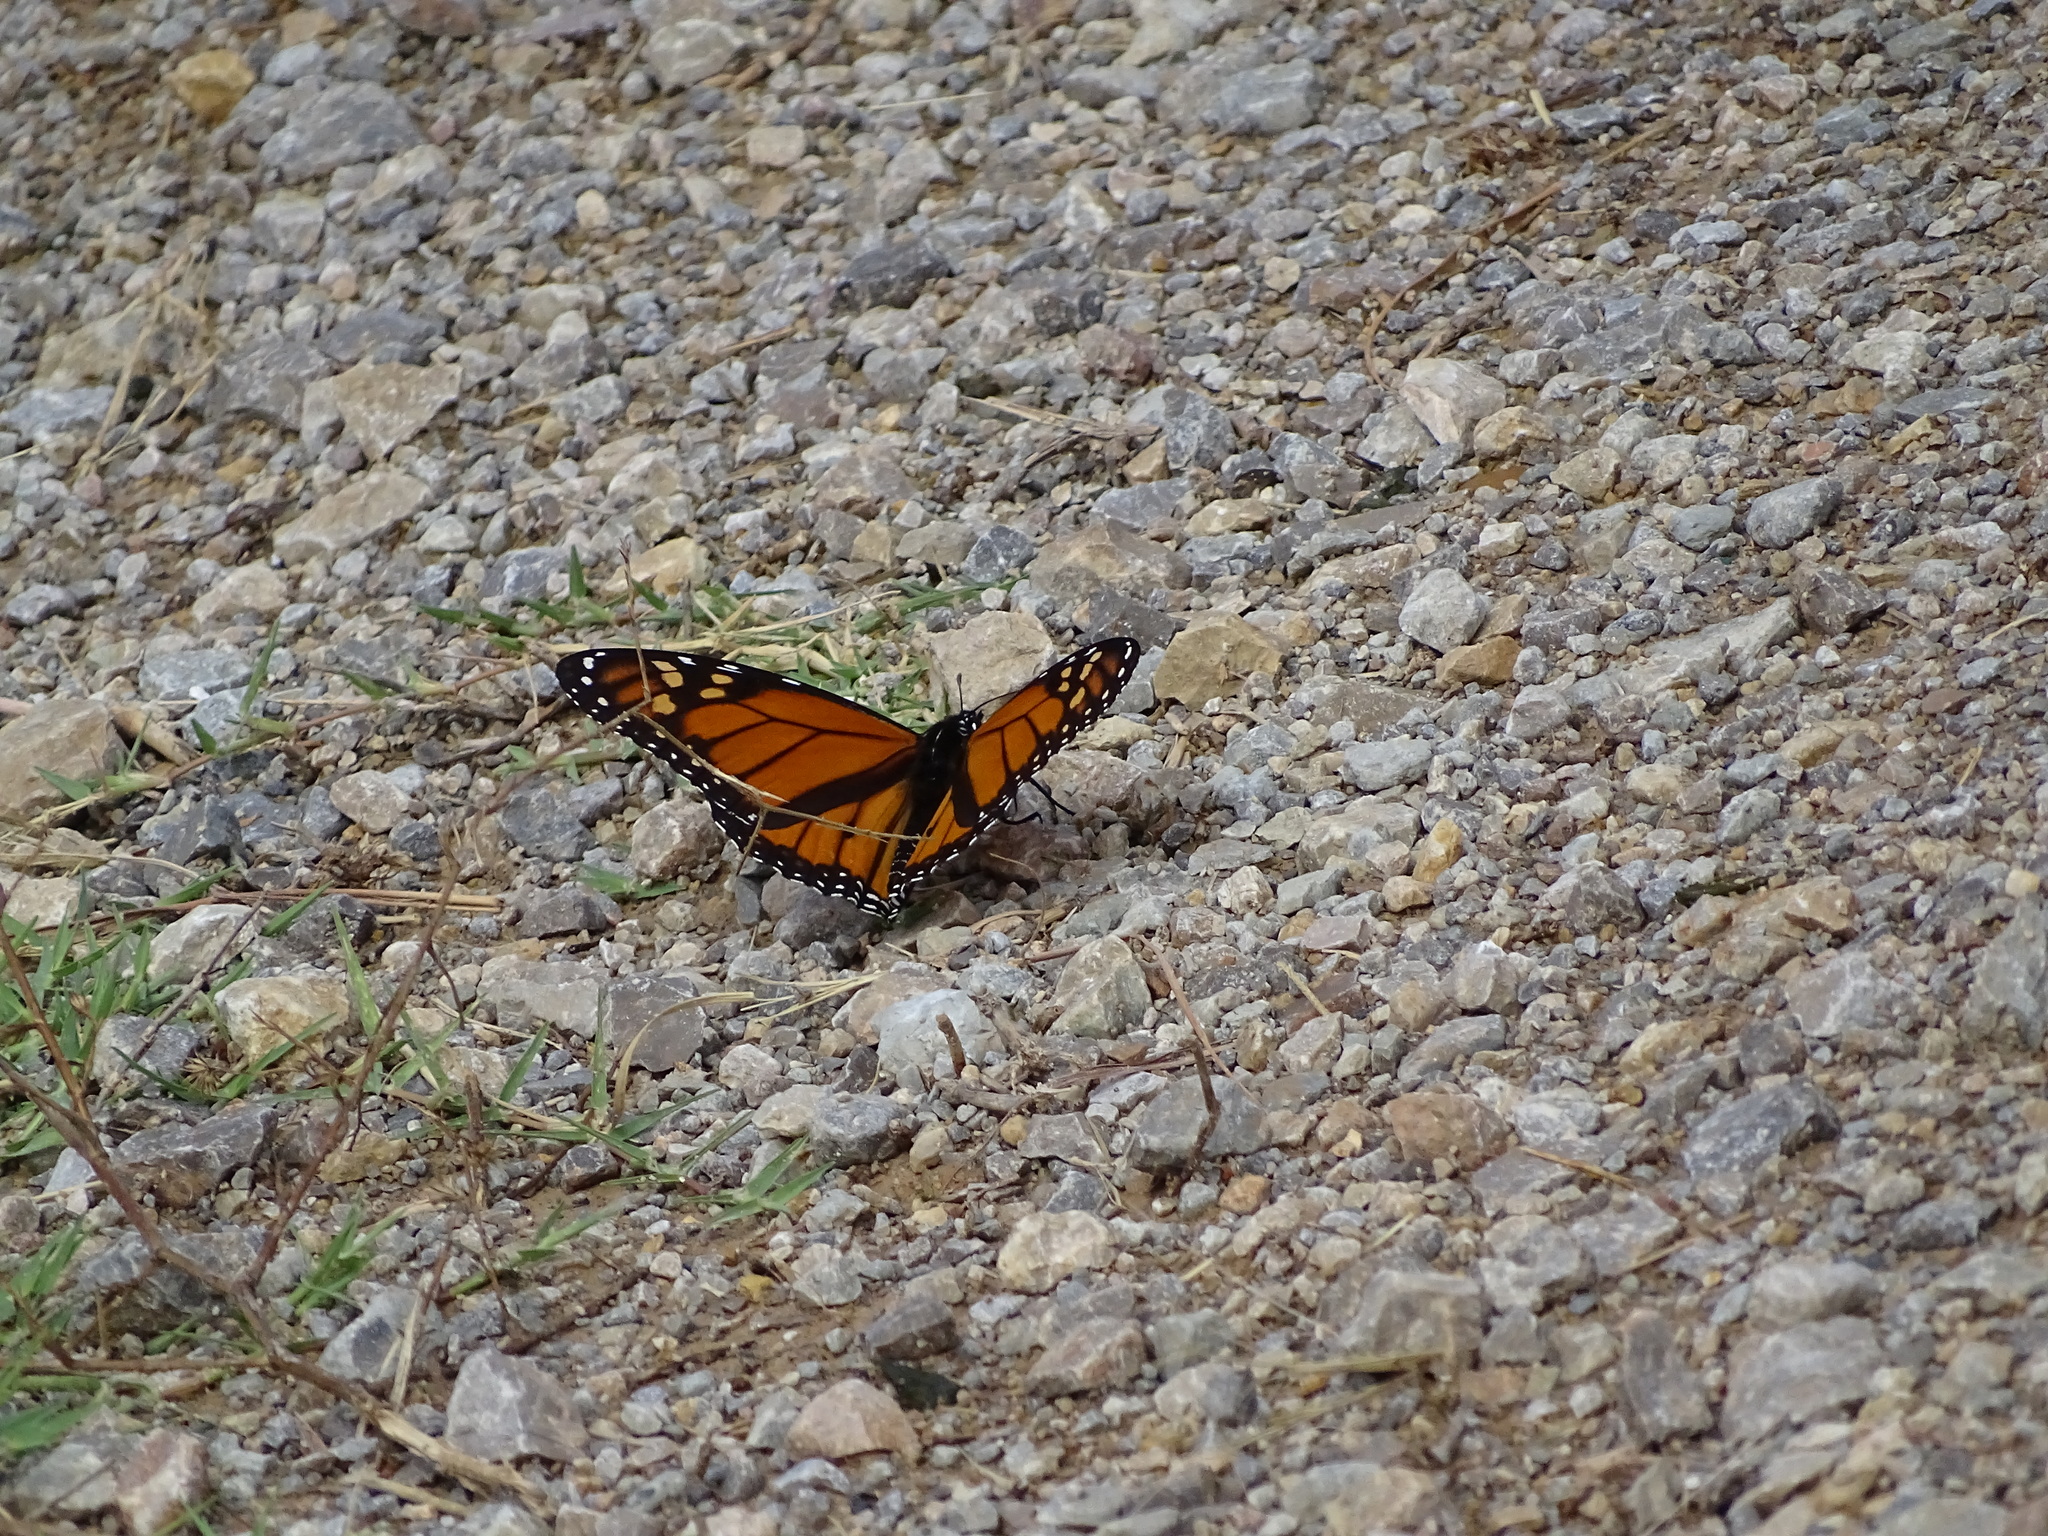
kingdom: Animalia
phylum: Arthropoda
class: Insecta
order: Lepidoptera
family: Nymphalidae
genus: Danaus
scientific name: Danaus plexippus
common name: Monarch
